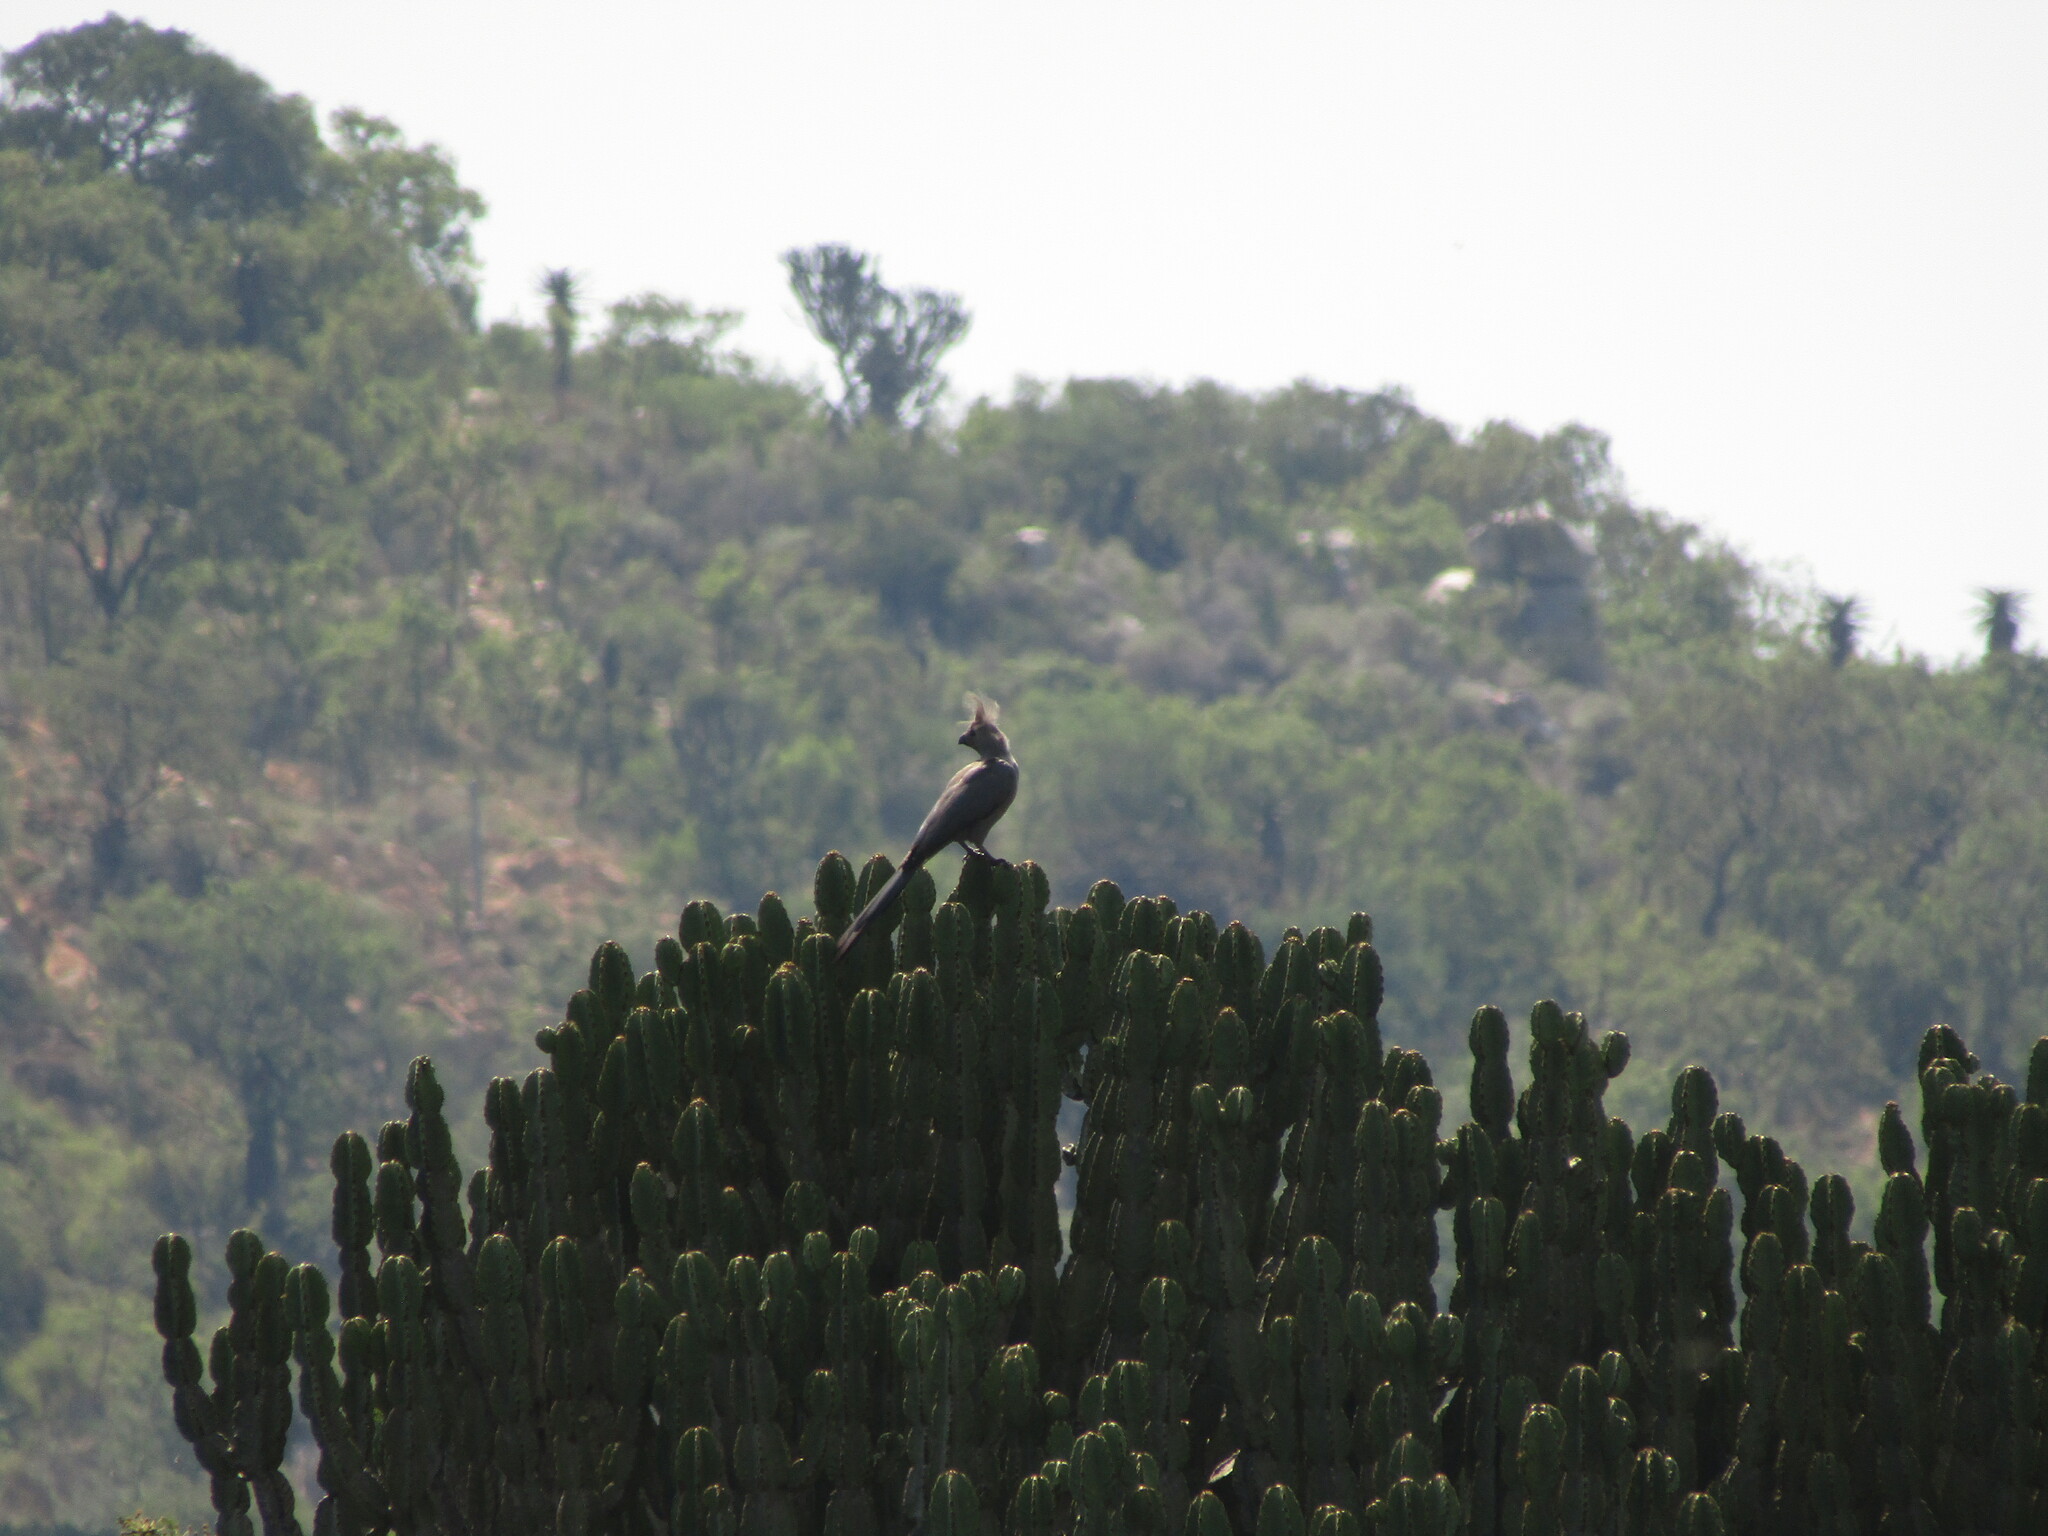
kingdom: Animalia
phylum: Chordata
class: Aves
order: Musophagiformes
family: Musophagidae
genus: Corythaixoides
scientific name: Corythaixoides concolor
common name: Grey go-away-bird
